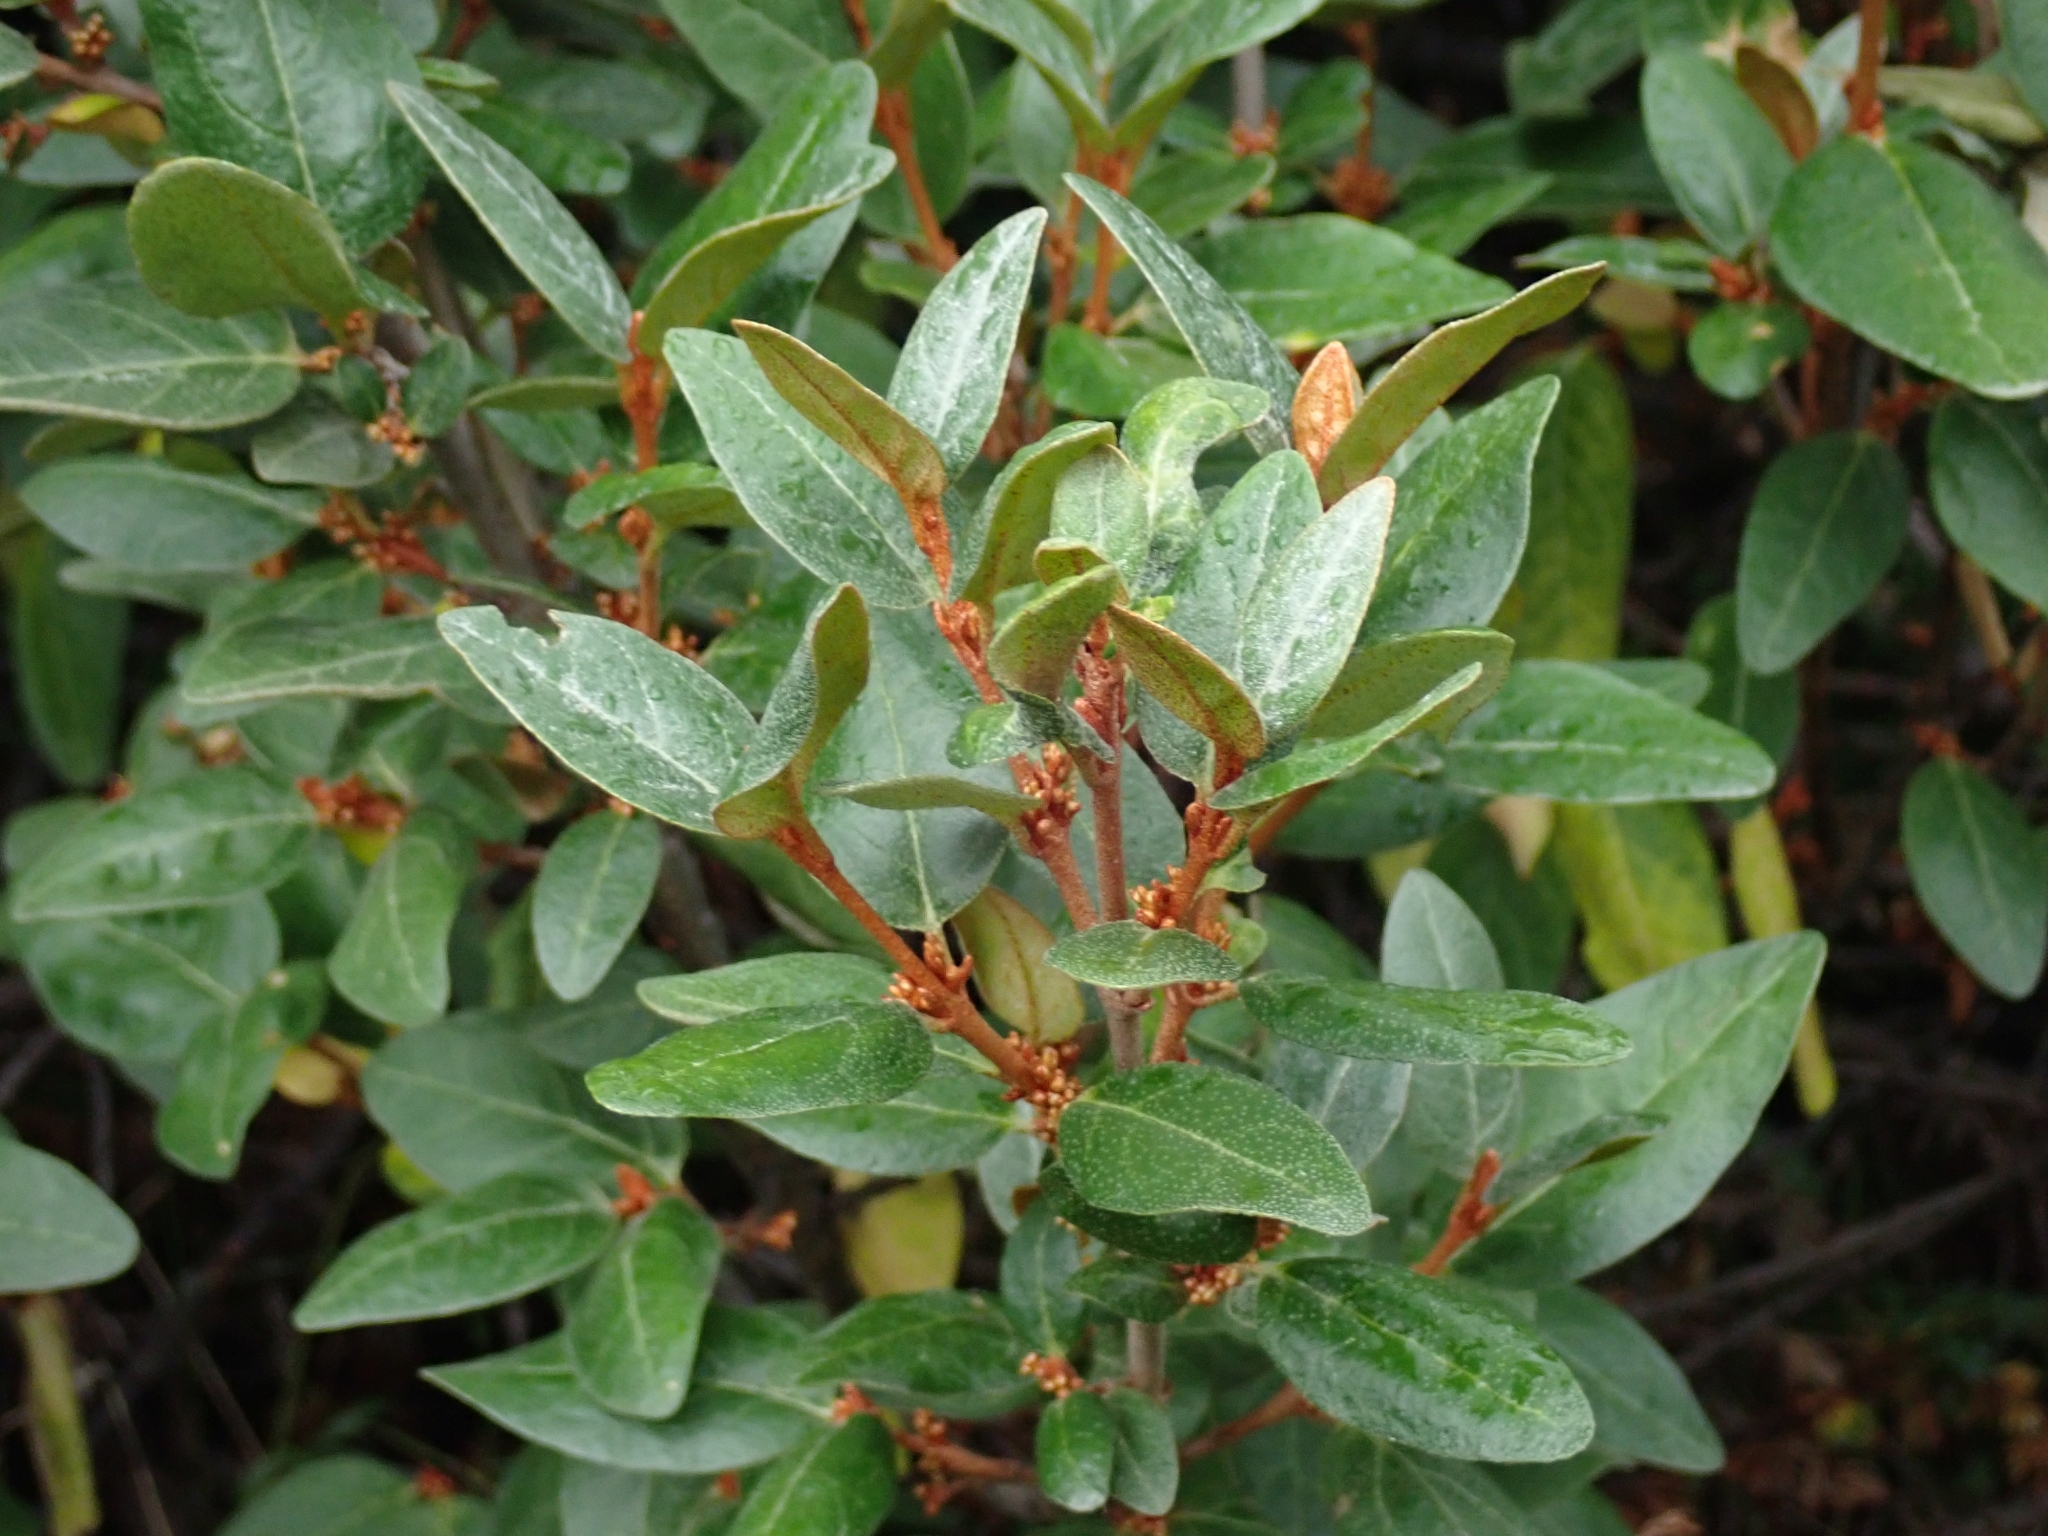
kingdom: Plantae
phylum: Tracheophyta
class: Magnoliopsida
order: Rosales
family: Elaeagnaceae
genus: Shepherdia
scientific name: Shepherdia canadensis
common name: Soapberry
